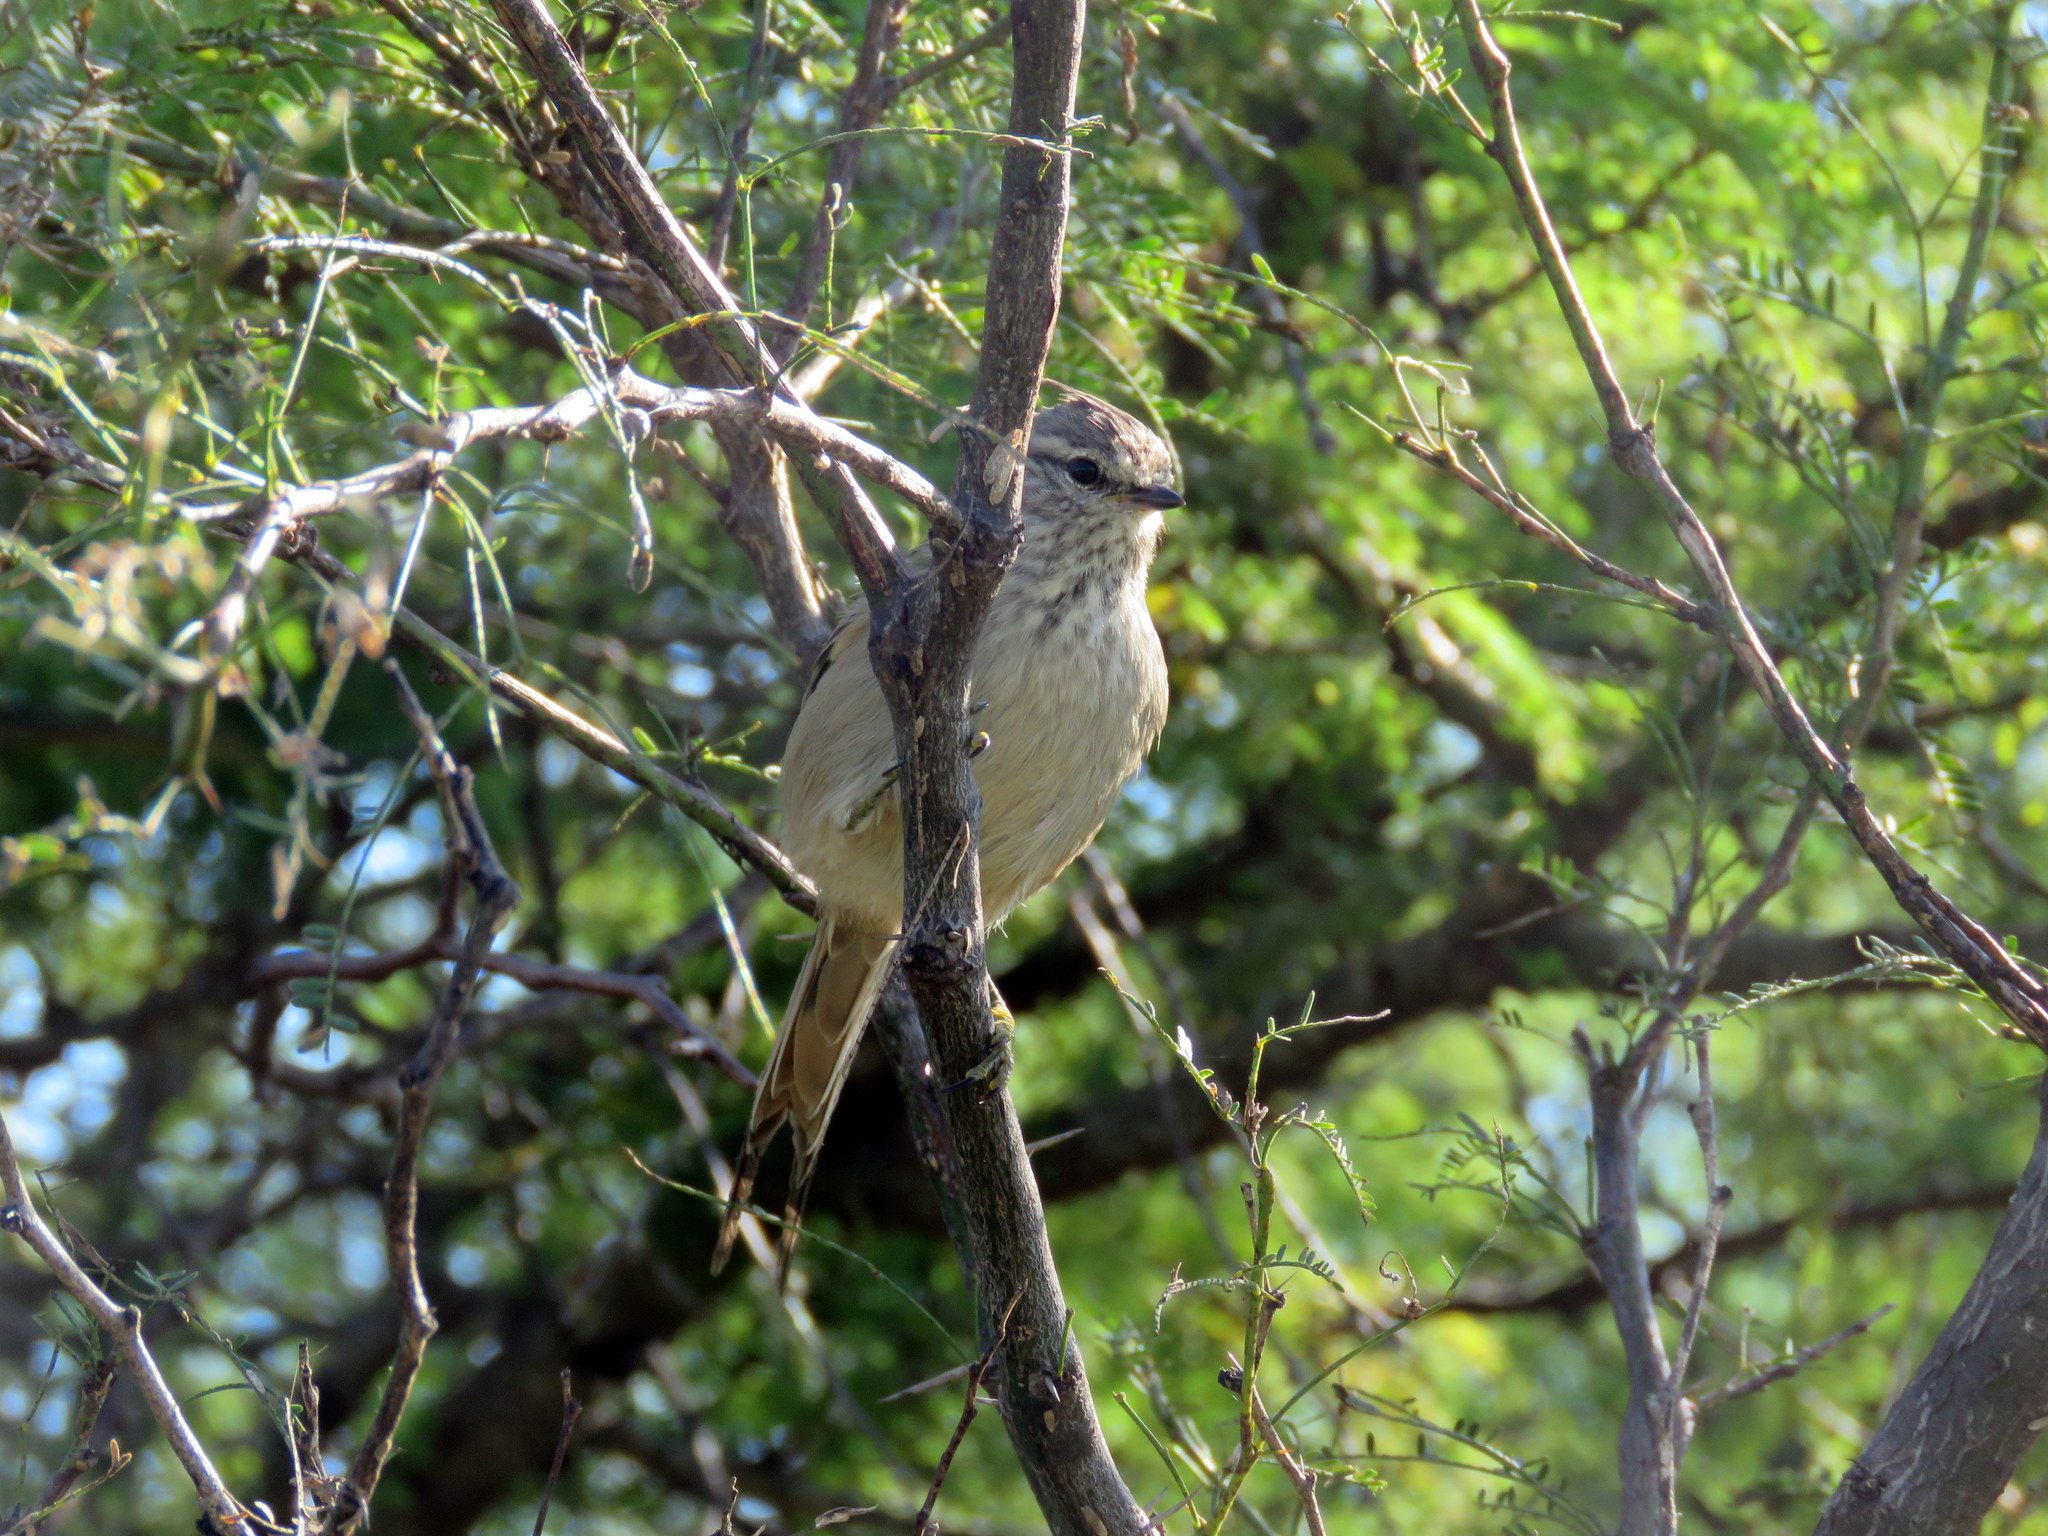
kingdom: Animalia
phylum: Chordata
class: Aves
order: Passeriformes
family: Furnariidae
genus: Leptasthenura
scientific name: Leptasthenura platensis
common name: Tufted tit-spinetail
